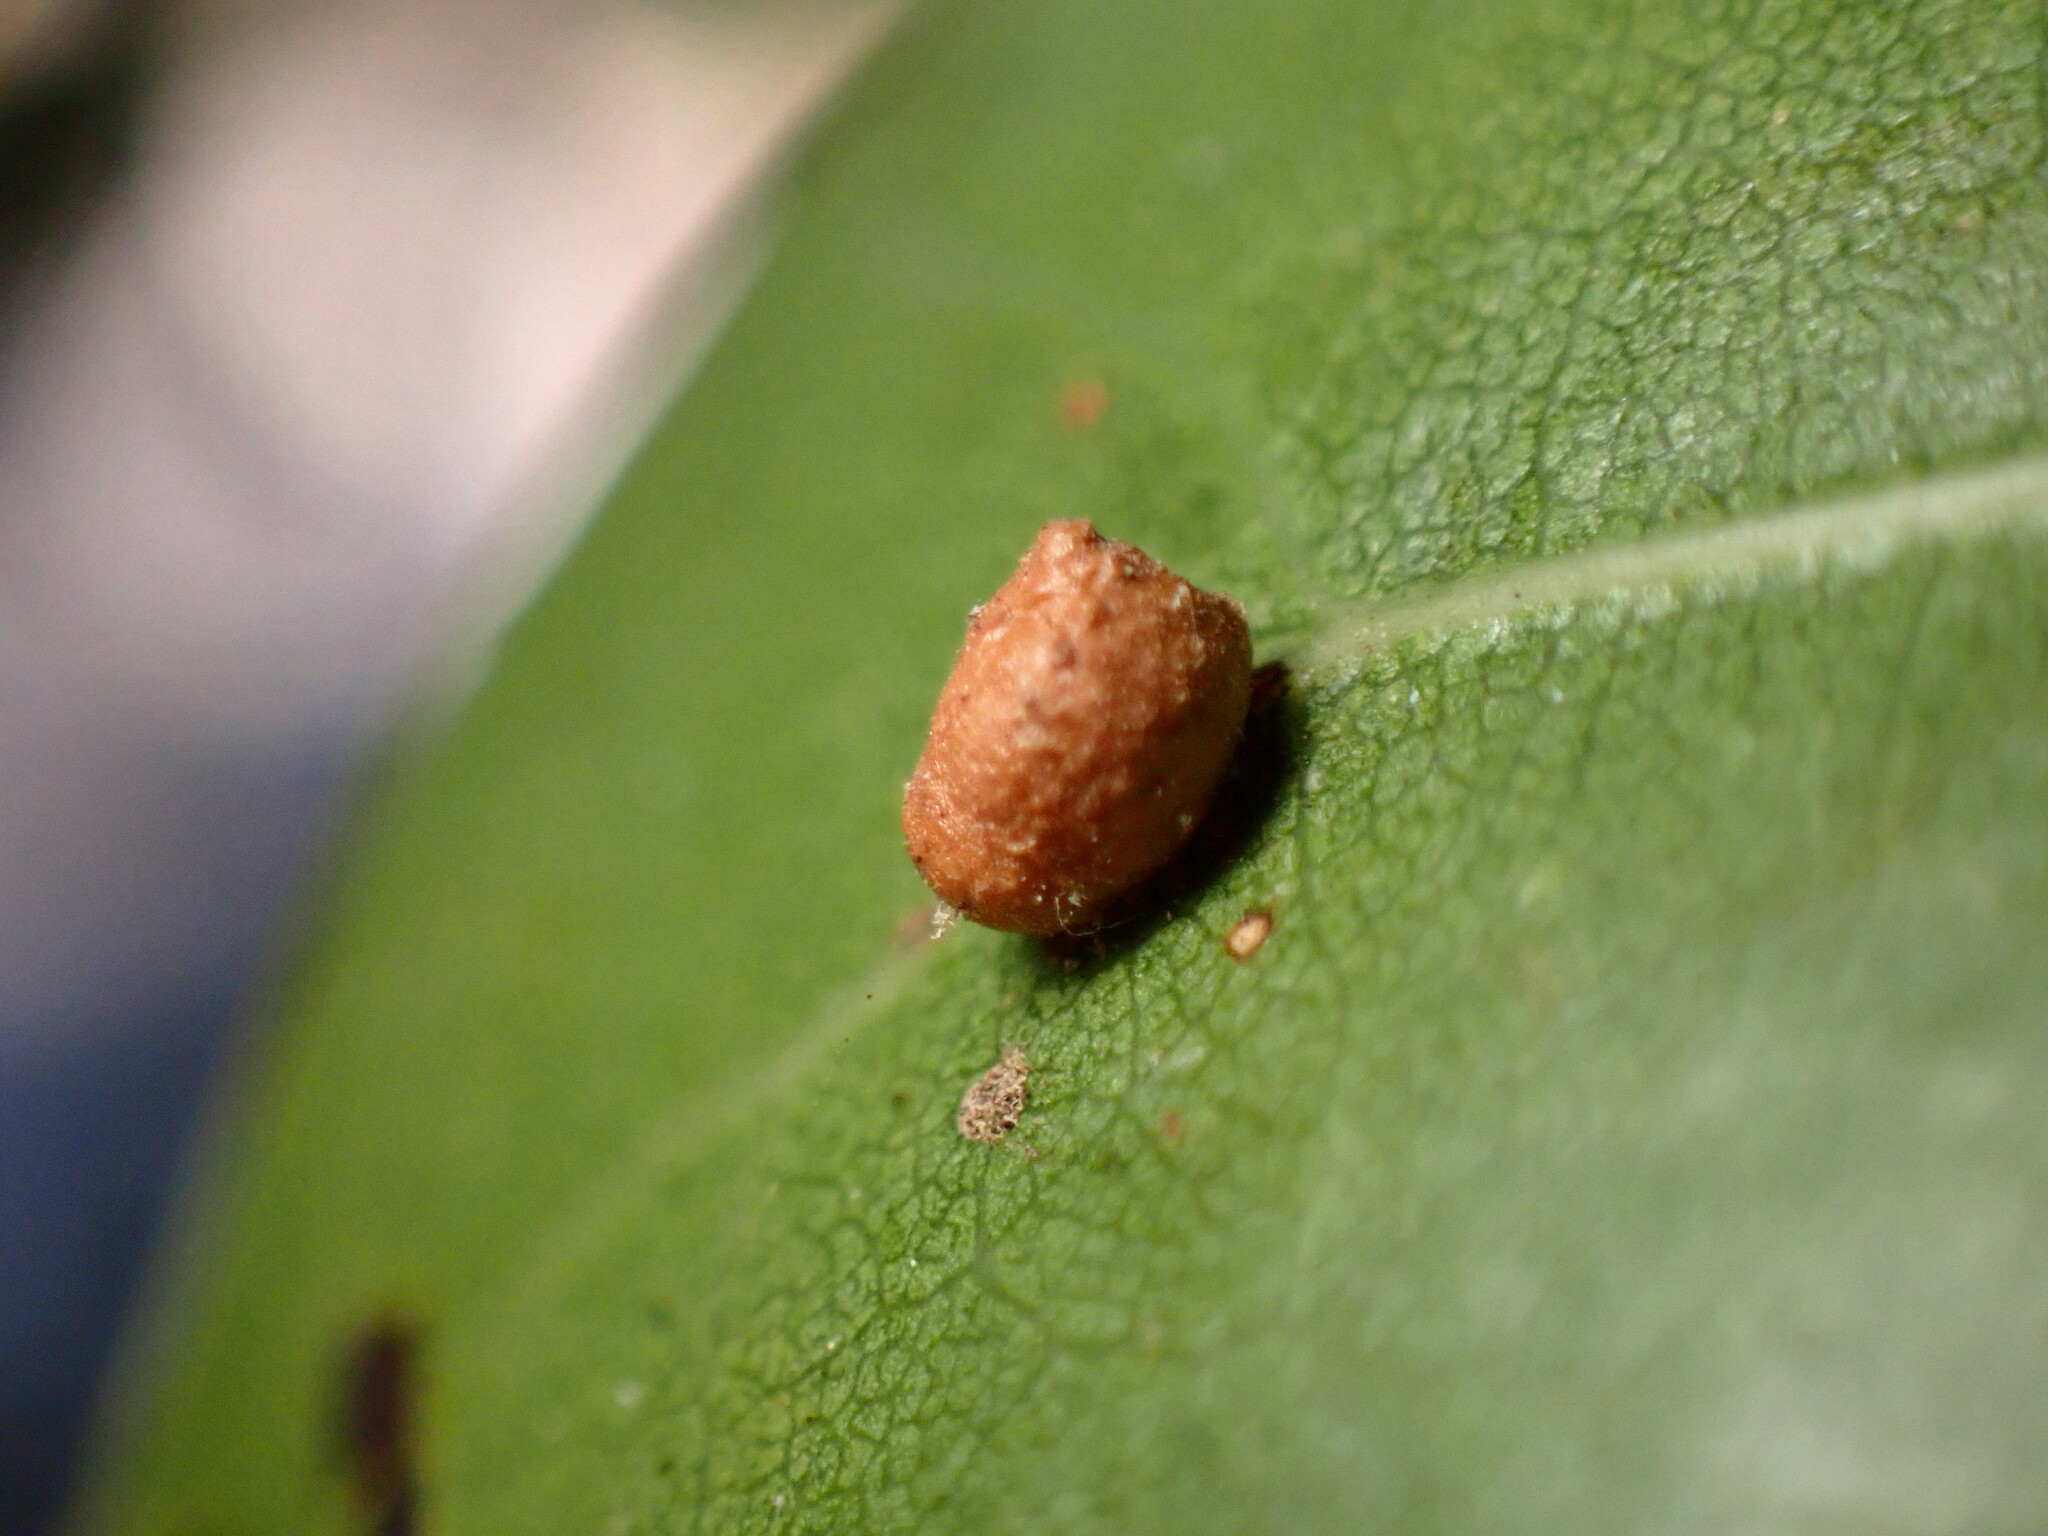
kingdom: Animalia
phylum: Arthropoda
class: Insecta
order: Hymenoptera
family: Cynipidae
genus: Dryocosmus
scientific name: Dryocosmus
